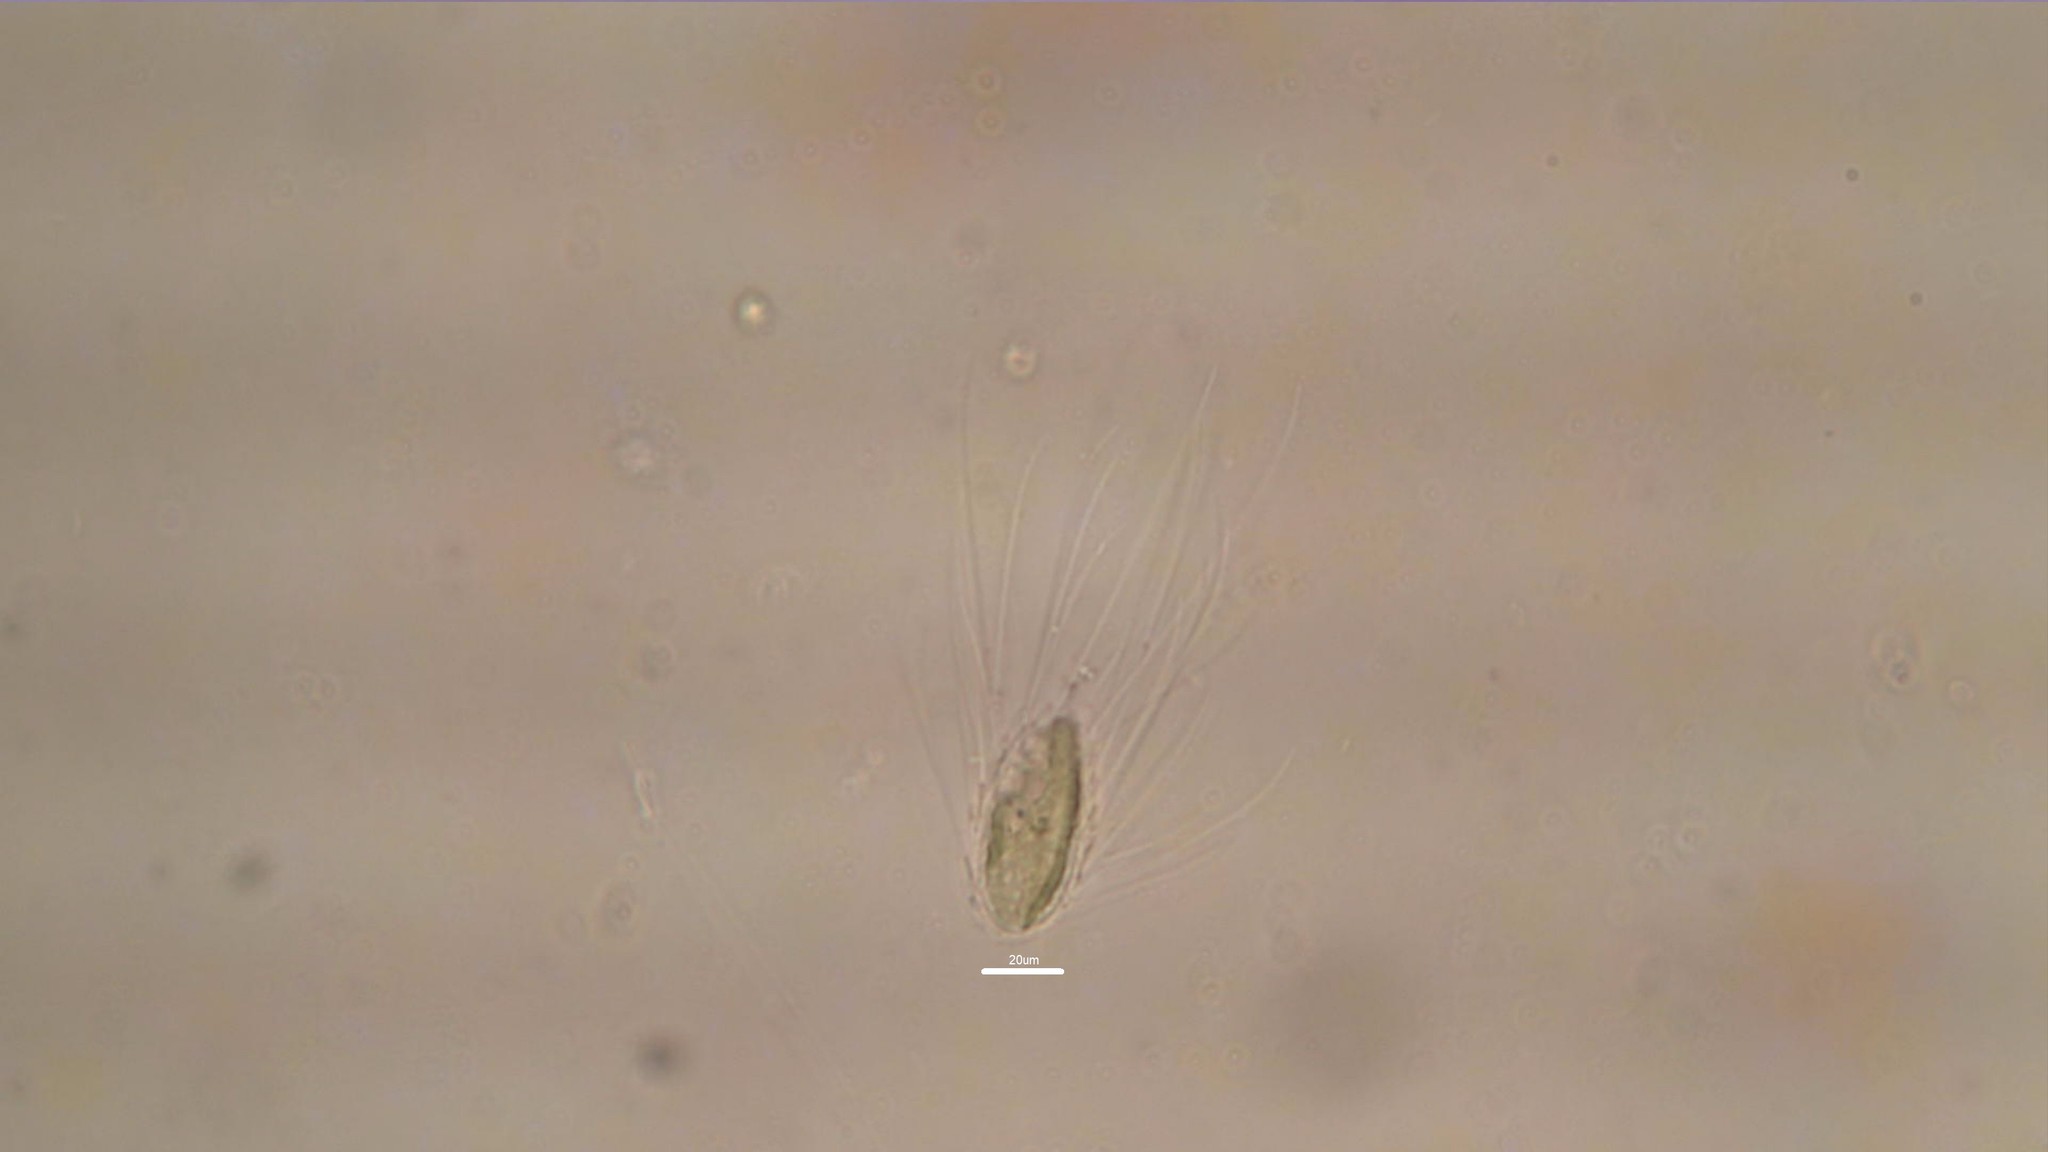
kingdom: Chromista
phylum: Ochrophyta
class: Chrysophyceae
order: Synurales
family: Mallomonadaceae
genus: Mallomonas
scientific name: Mallomonas
